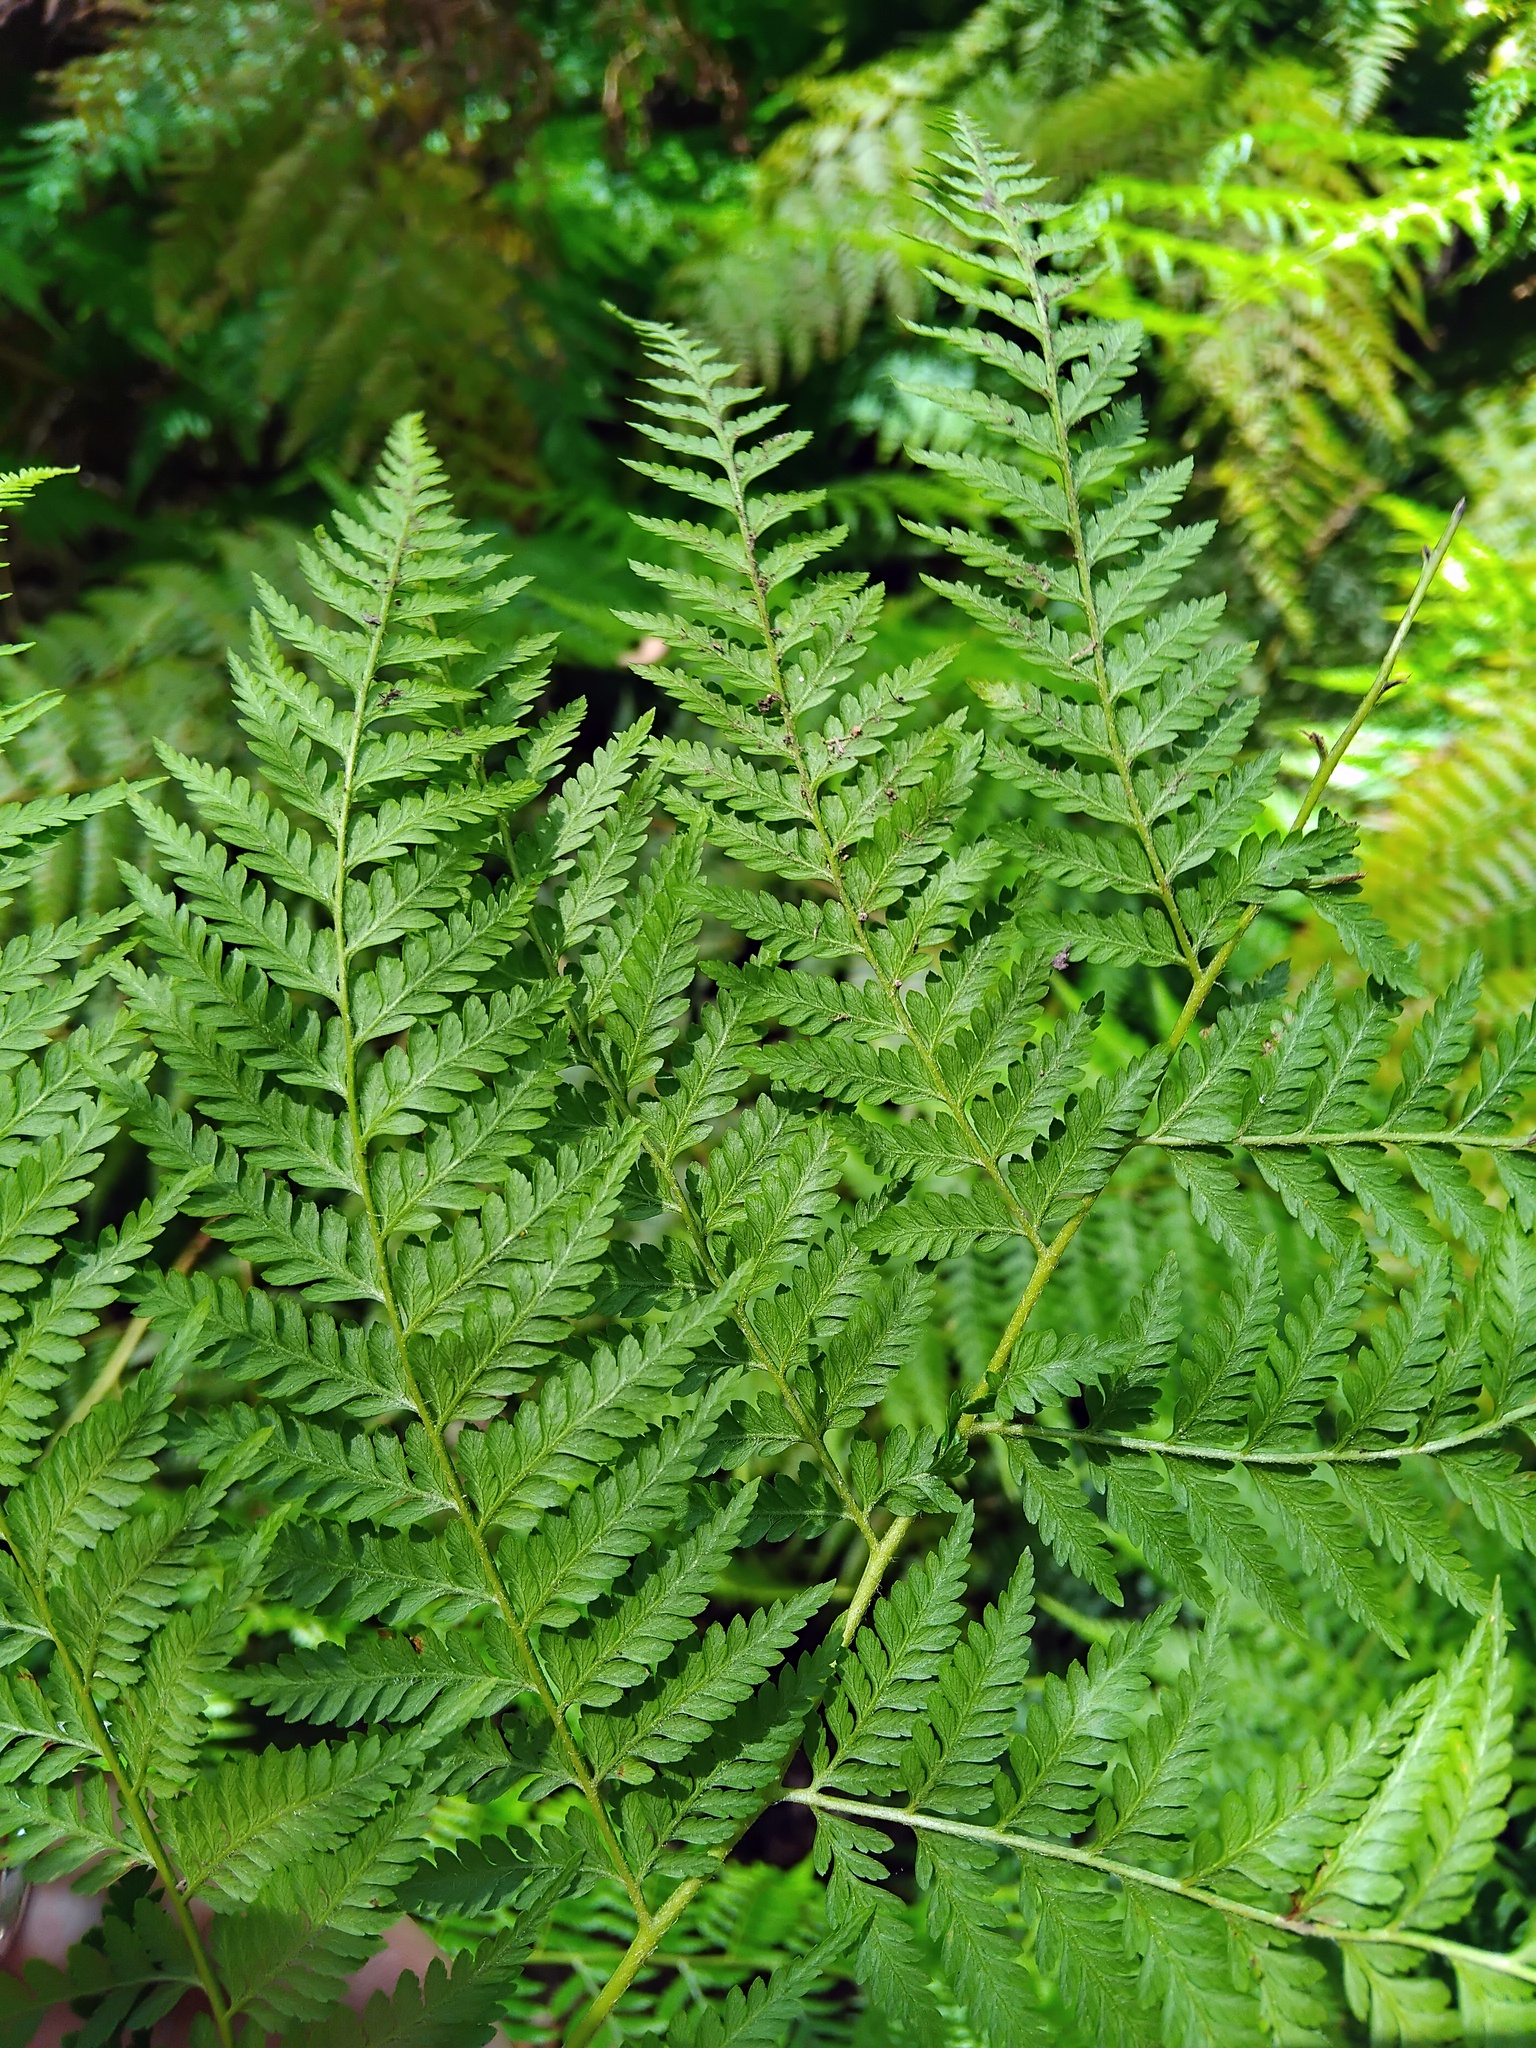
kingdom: Plantae
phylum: Tracheophyta
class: Polypodiopsida
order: Cyatheales
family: Dicksoniaceae
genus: Calochlaena
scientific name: Calochlaena dubia
